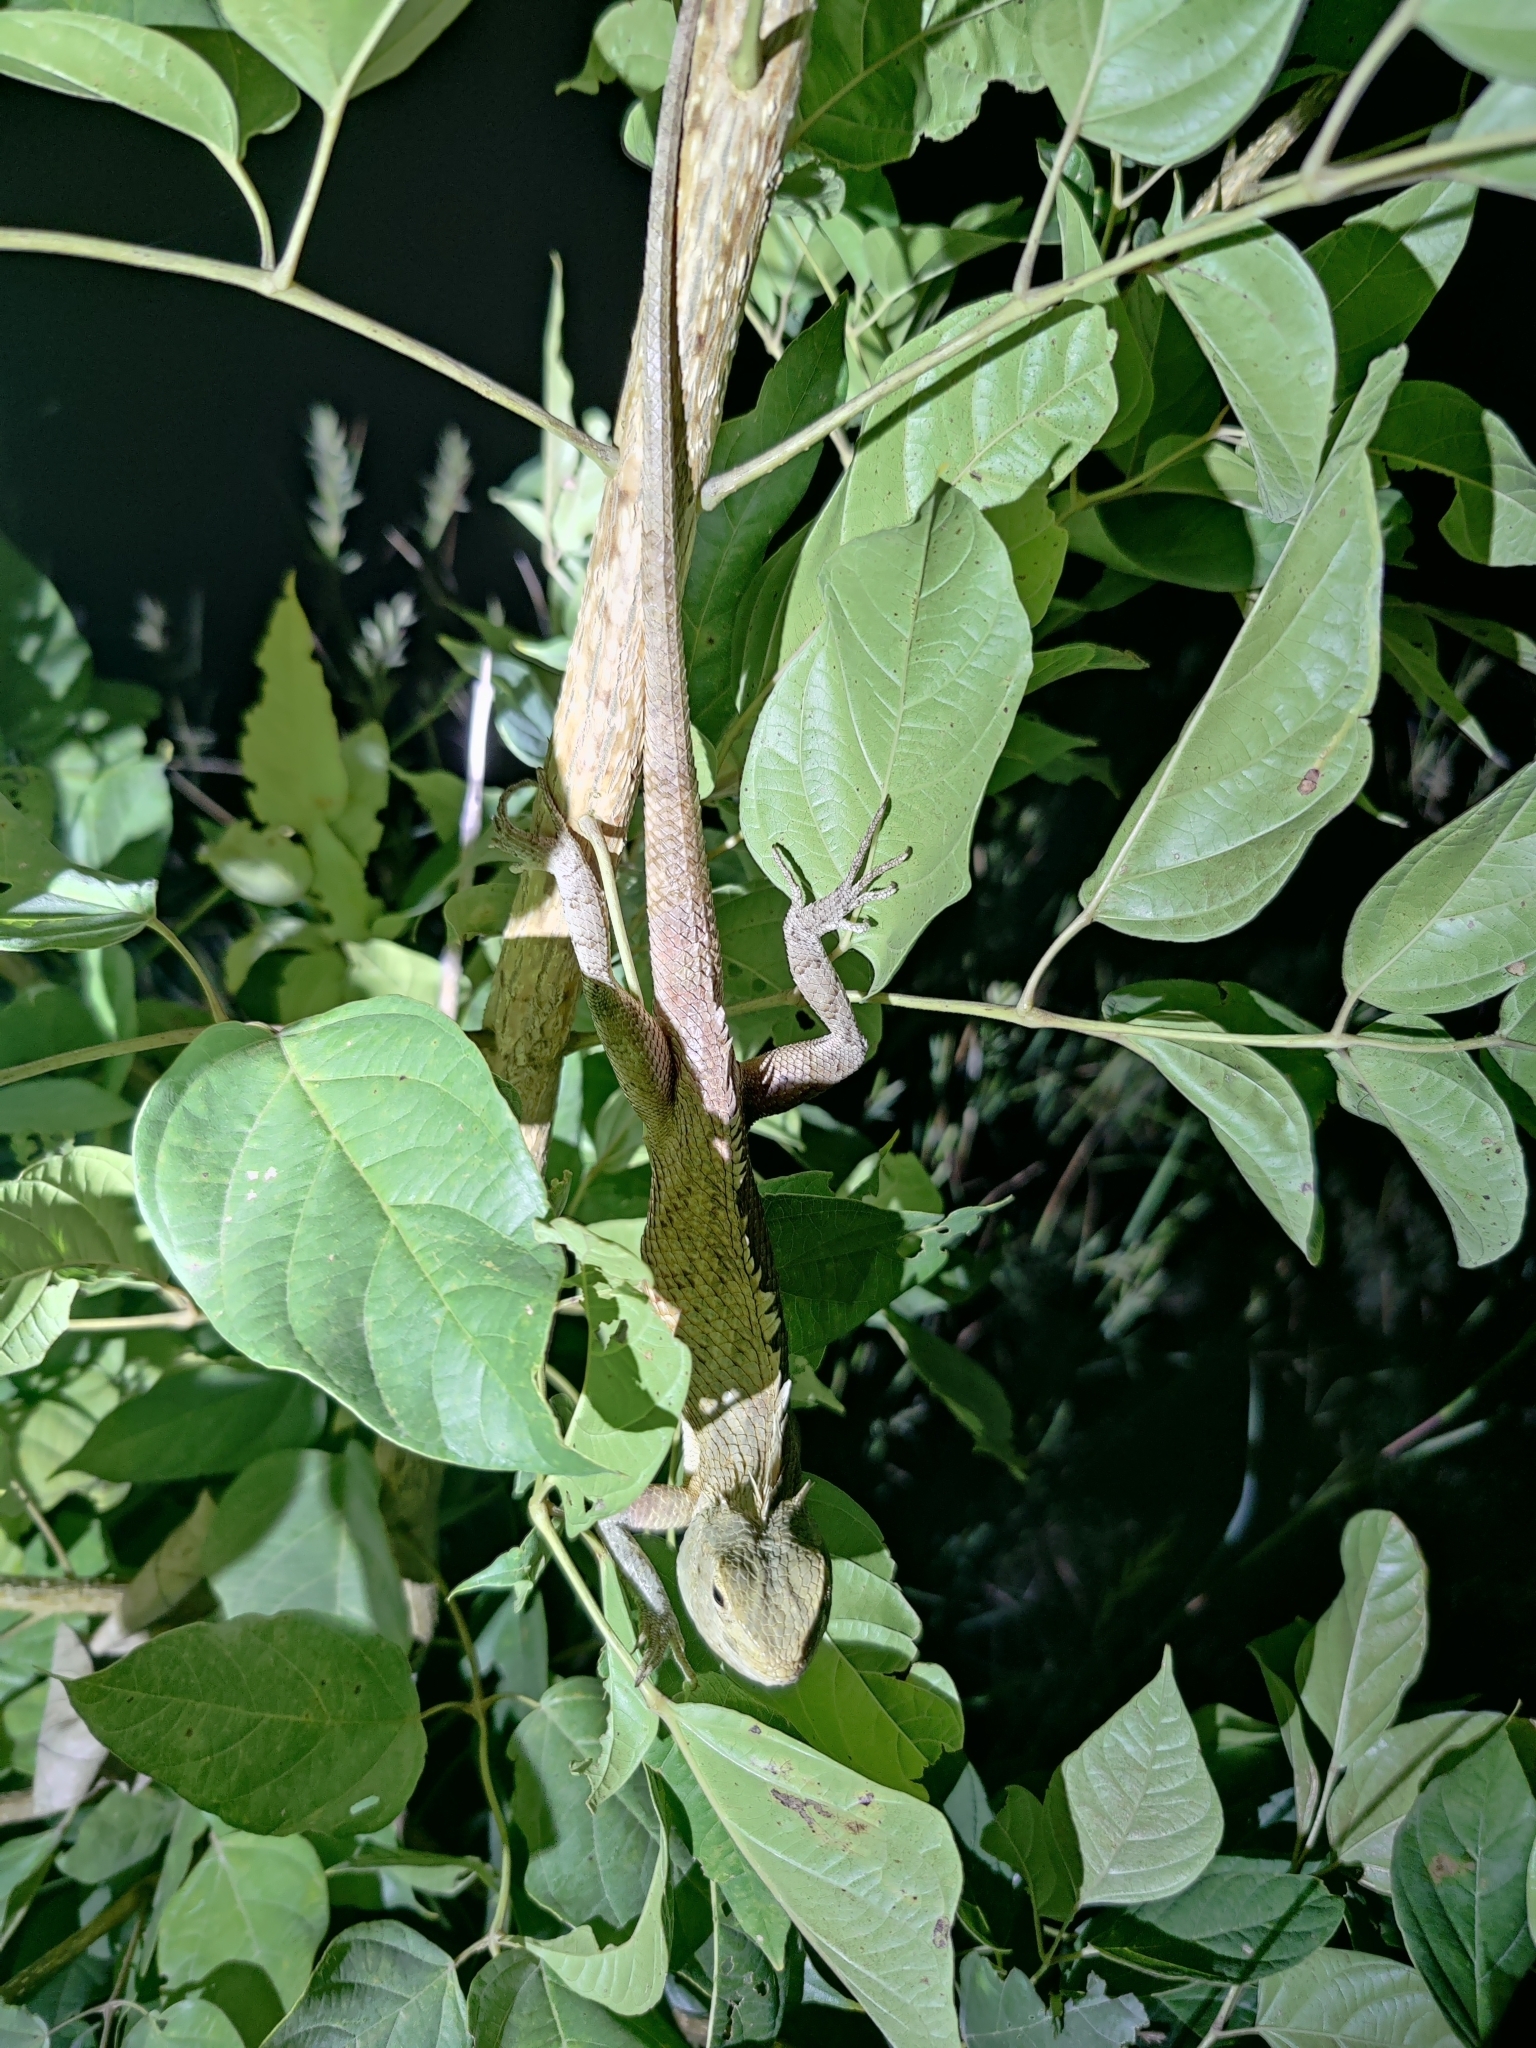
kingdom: Animalia
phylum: Chordata
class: Squamata
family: Agamidae
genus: Calotes
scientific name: Calotes versicolor
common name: Oriental garden lizard
